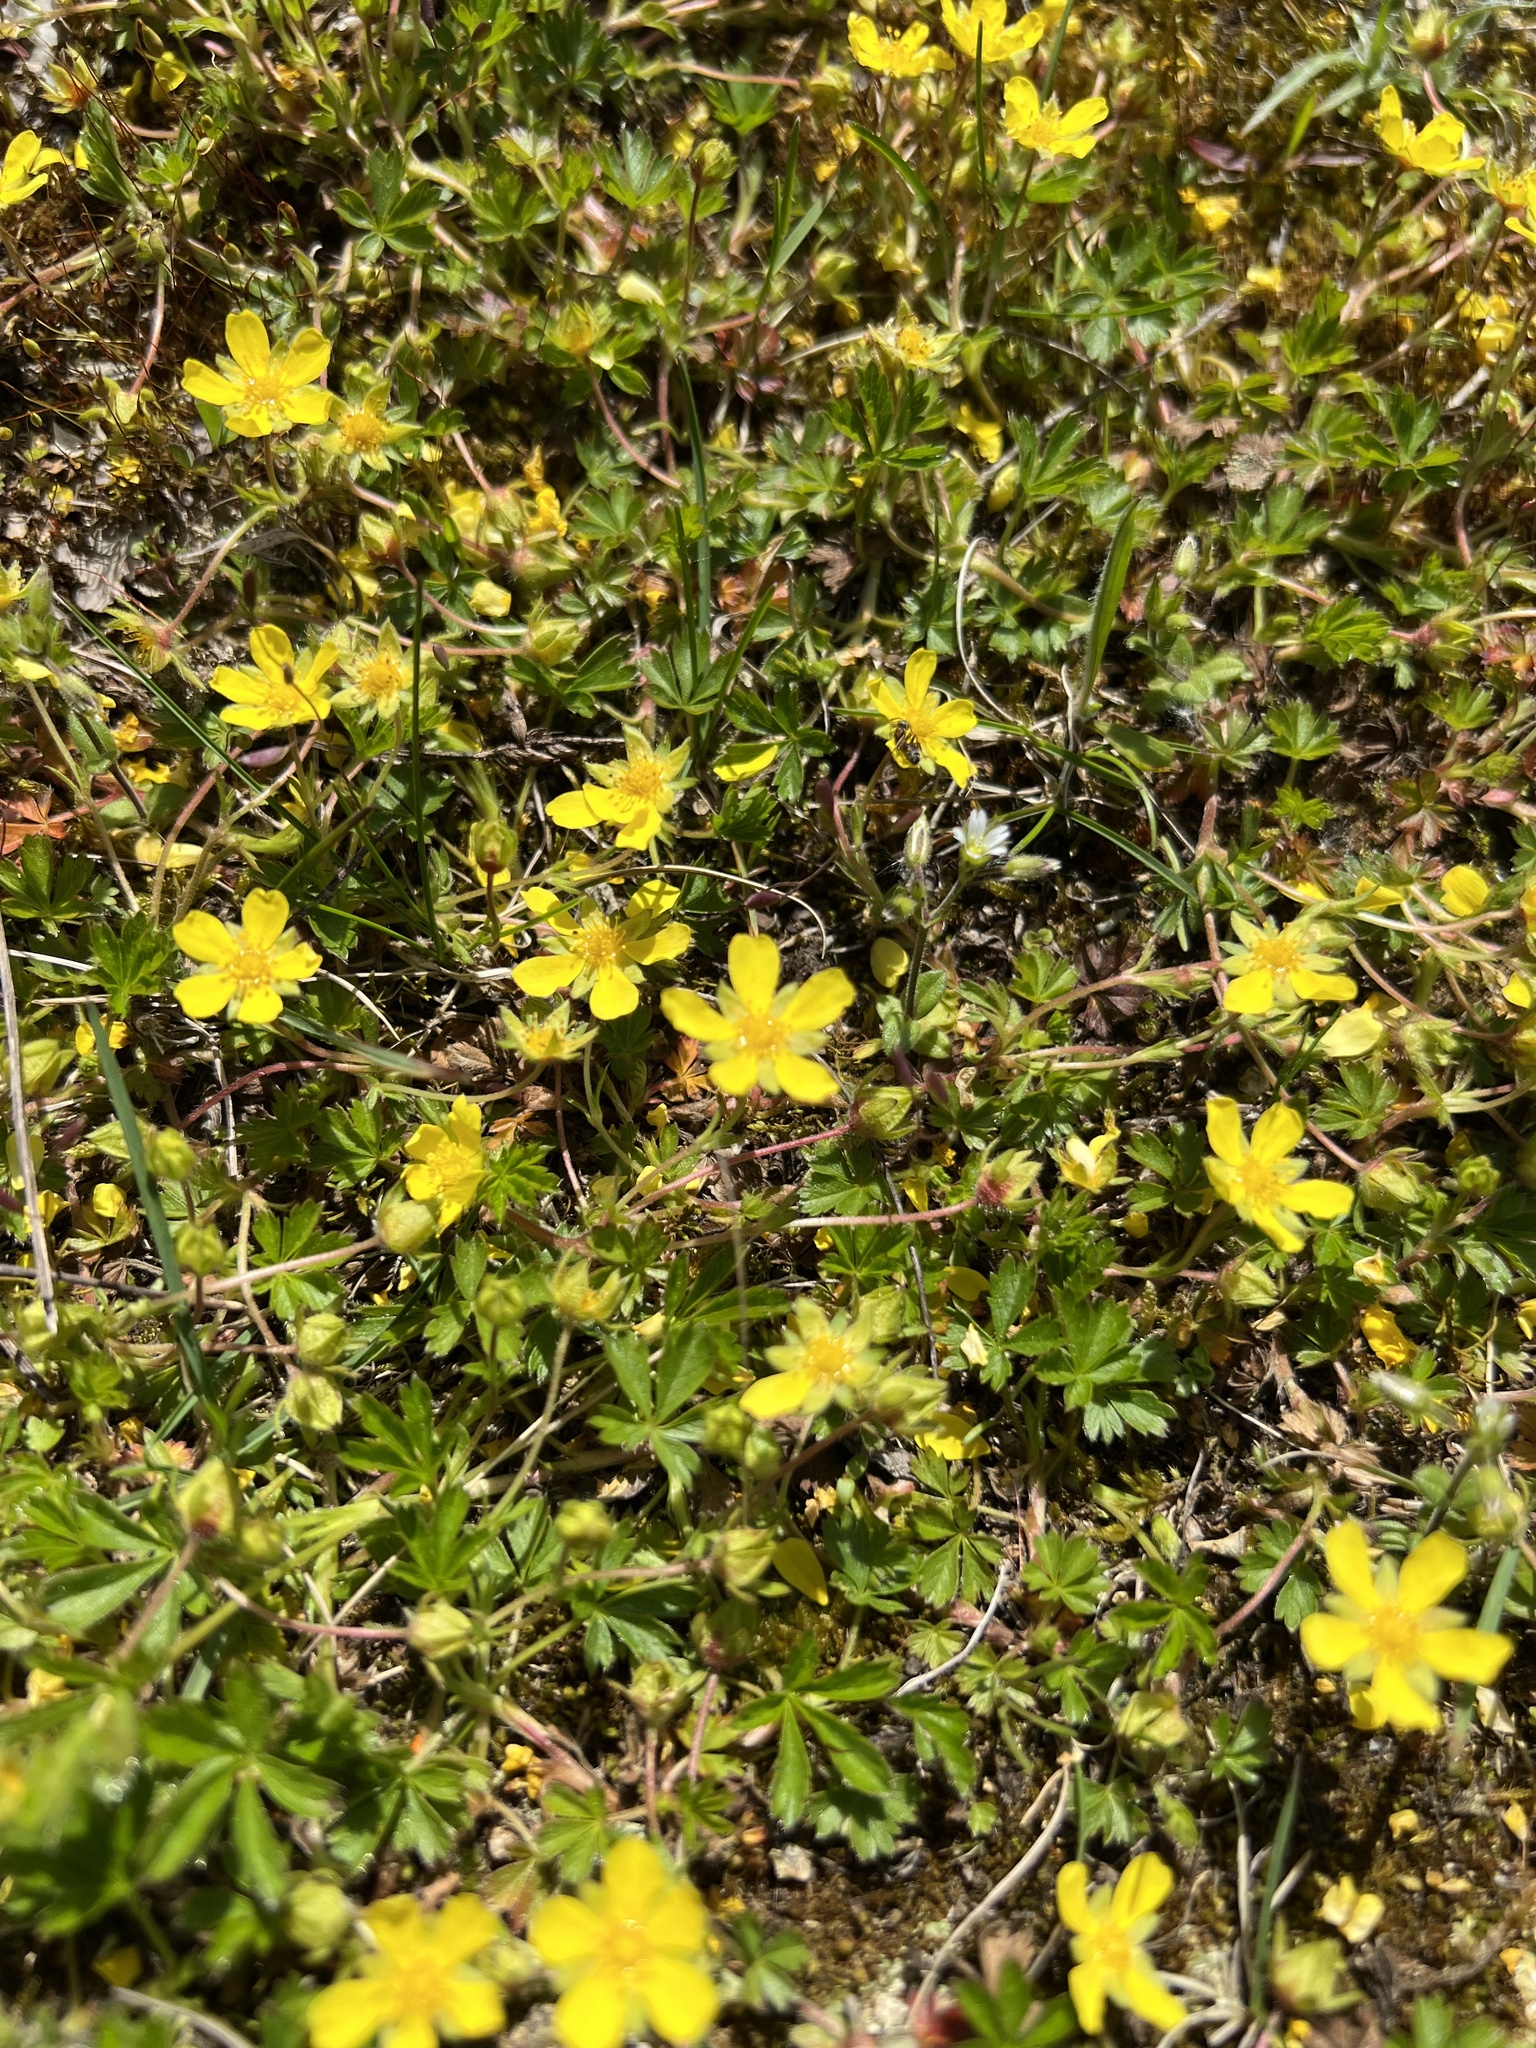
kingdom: Plantae
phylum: Tracheophyta
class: Magnoliopsida
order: Rosales
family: Rosaceae
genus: Potentilla
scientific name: Potentilla verna
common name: Spring cinquefoil
